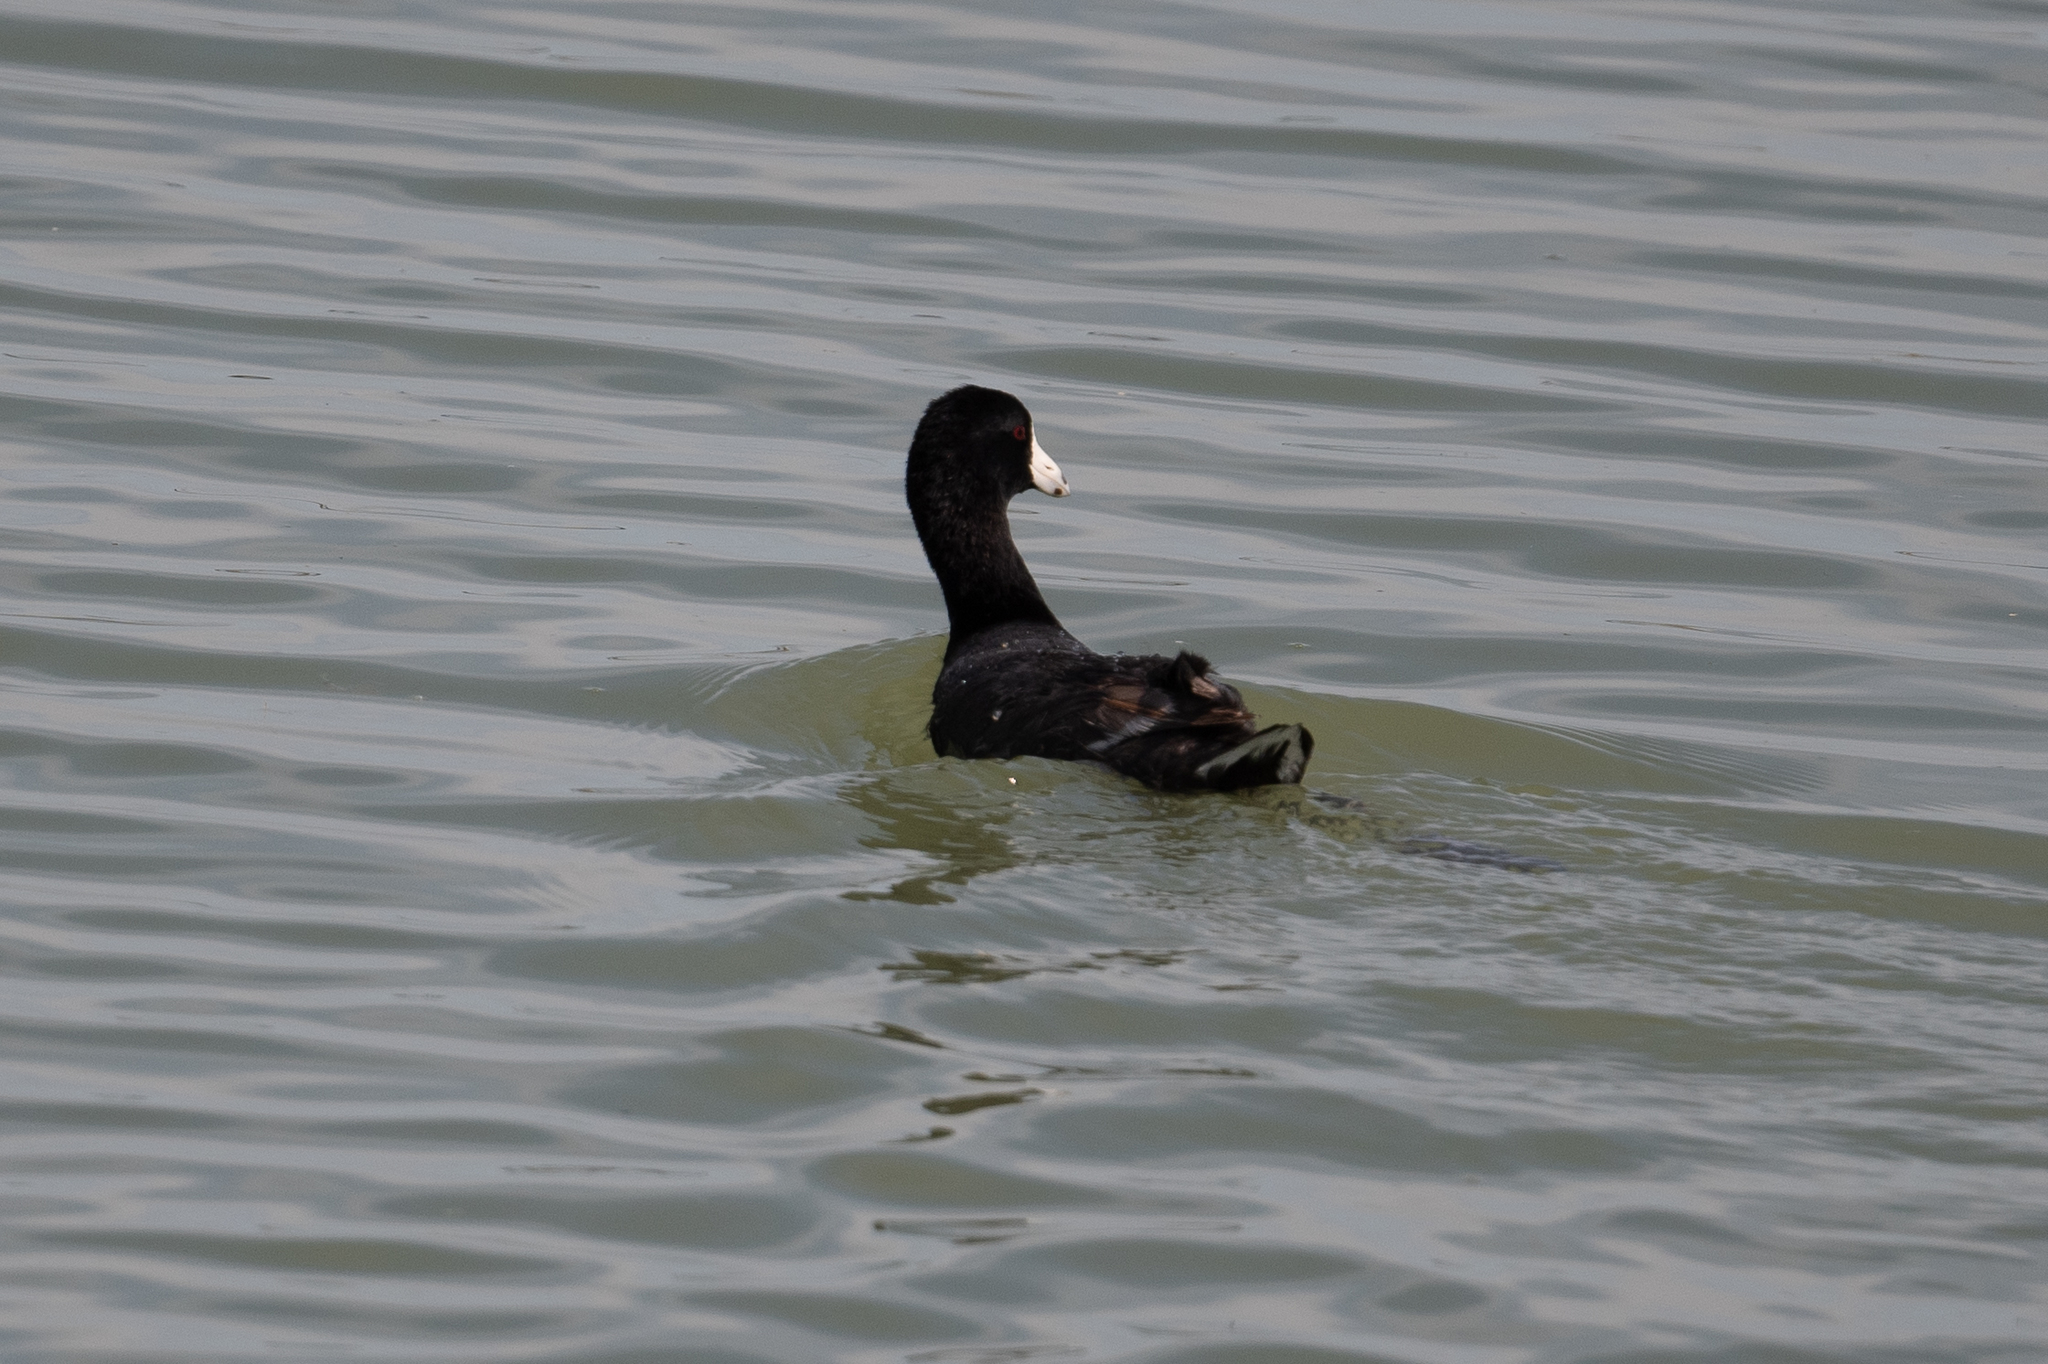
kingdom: Animalia
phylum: Chordata
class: Aves
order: Gruiformes
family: Rallidae
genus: Fulica
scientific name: Fulica americana
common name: American coot
